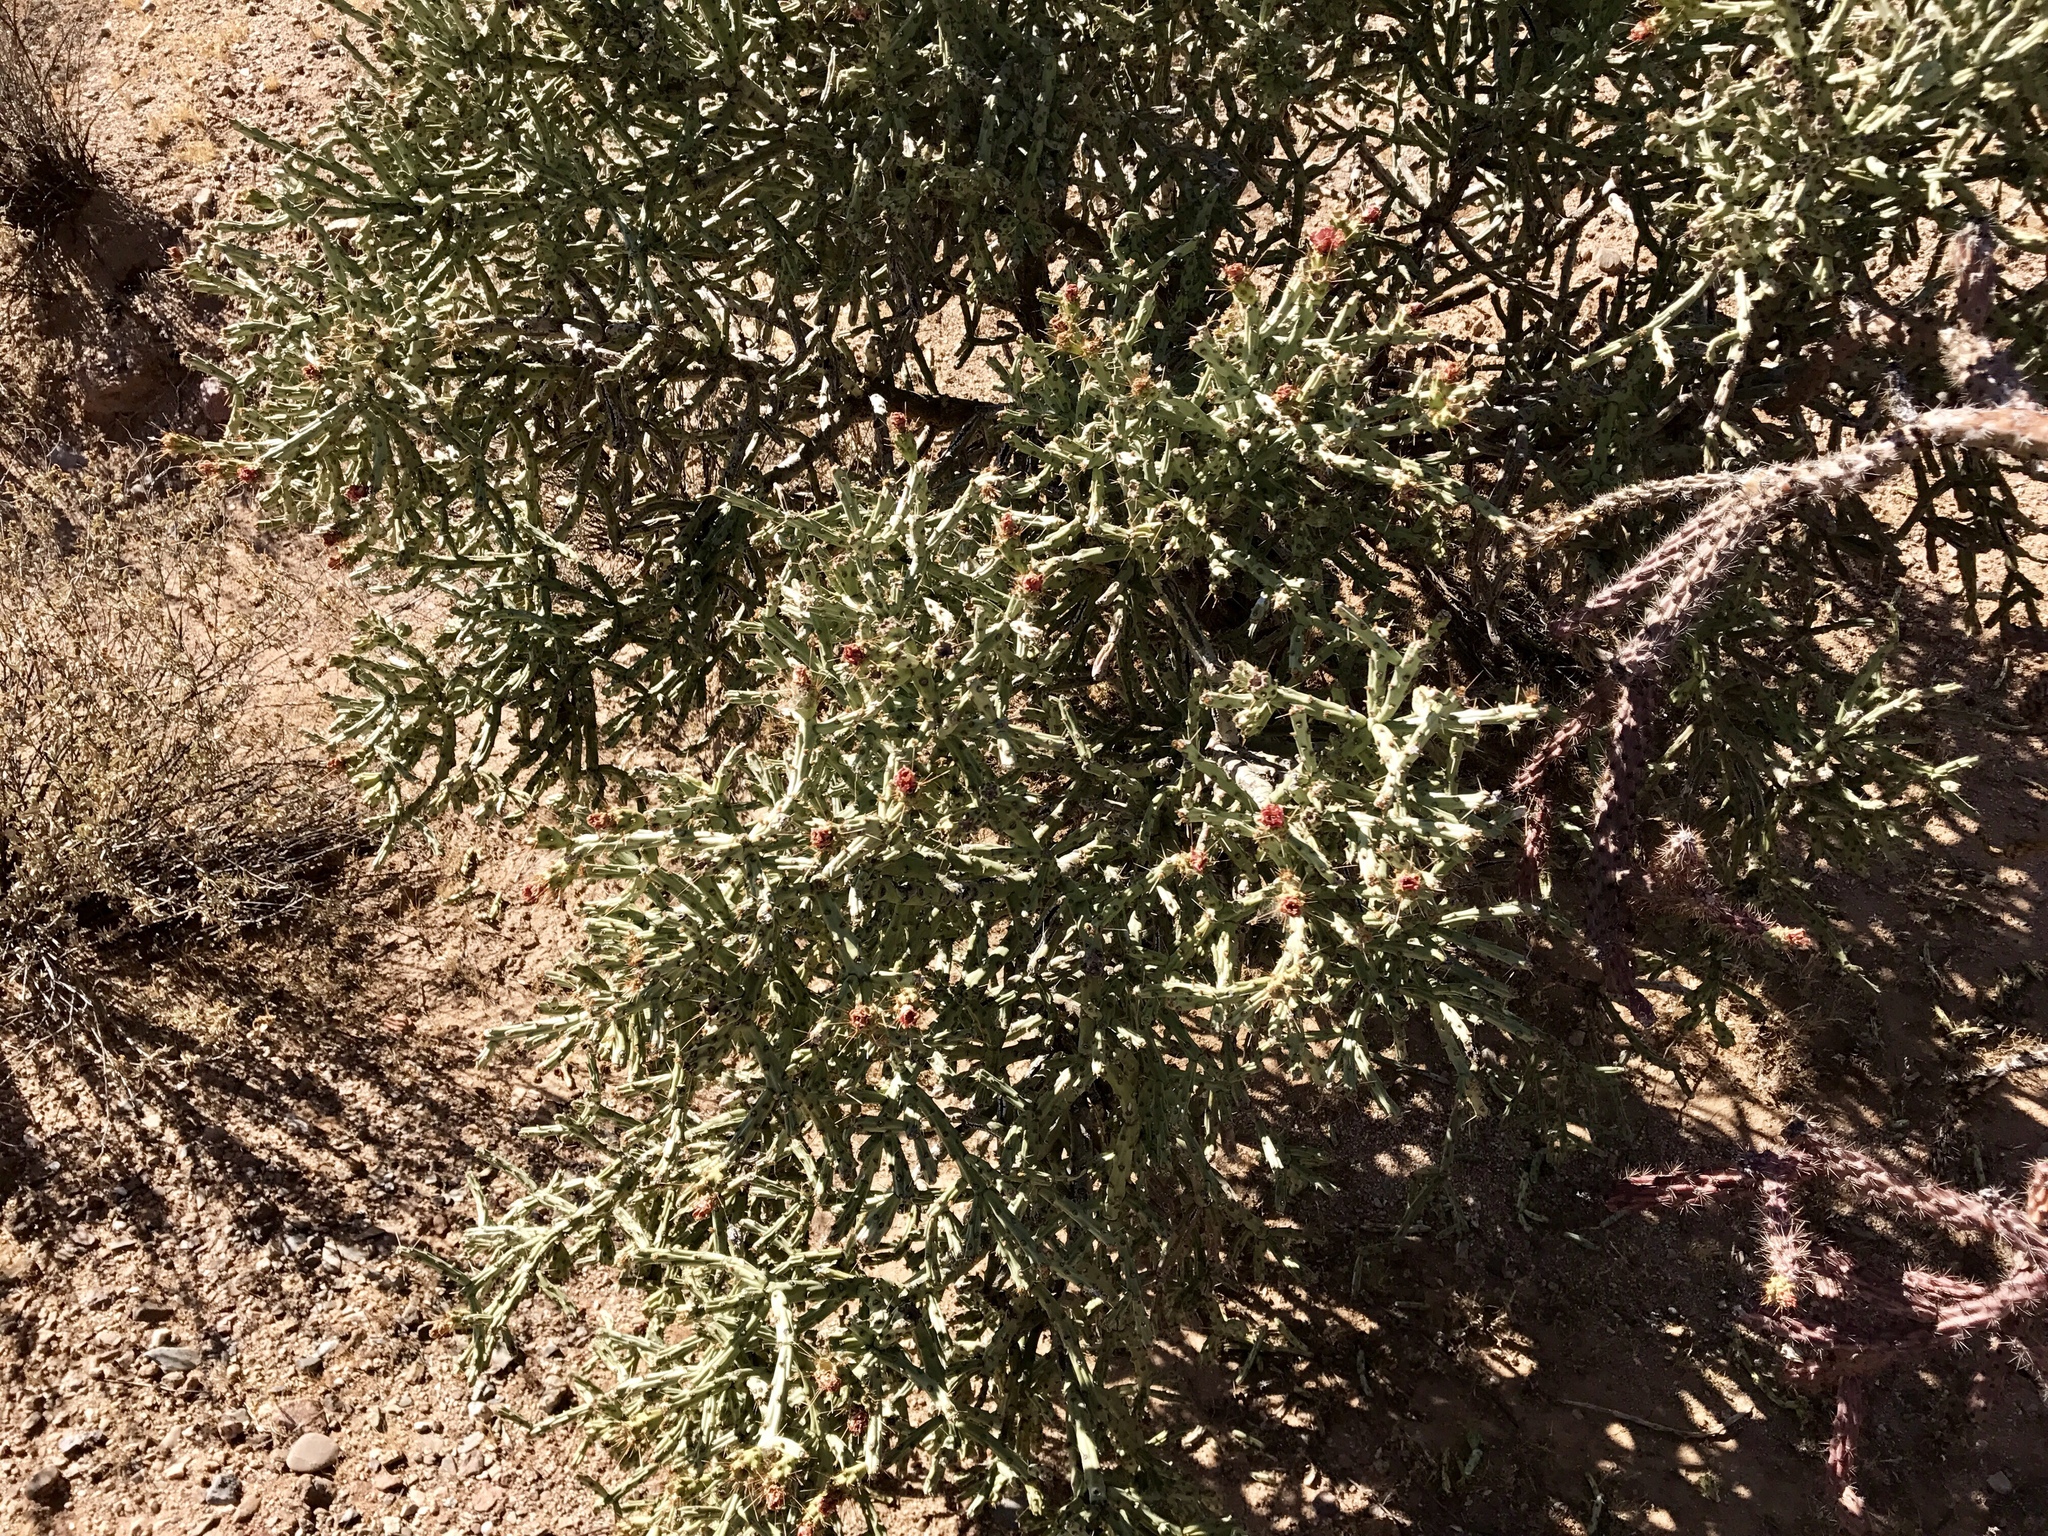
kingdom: Plantae
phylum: Tracheophyta
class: Magnoliopsida
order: Caryophyllales
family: Cactaceae
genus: Cylindropuntia
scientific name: Cylindropuntia arbuscula
